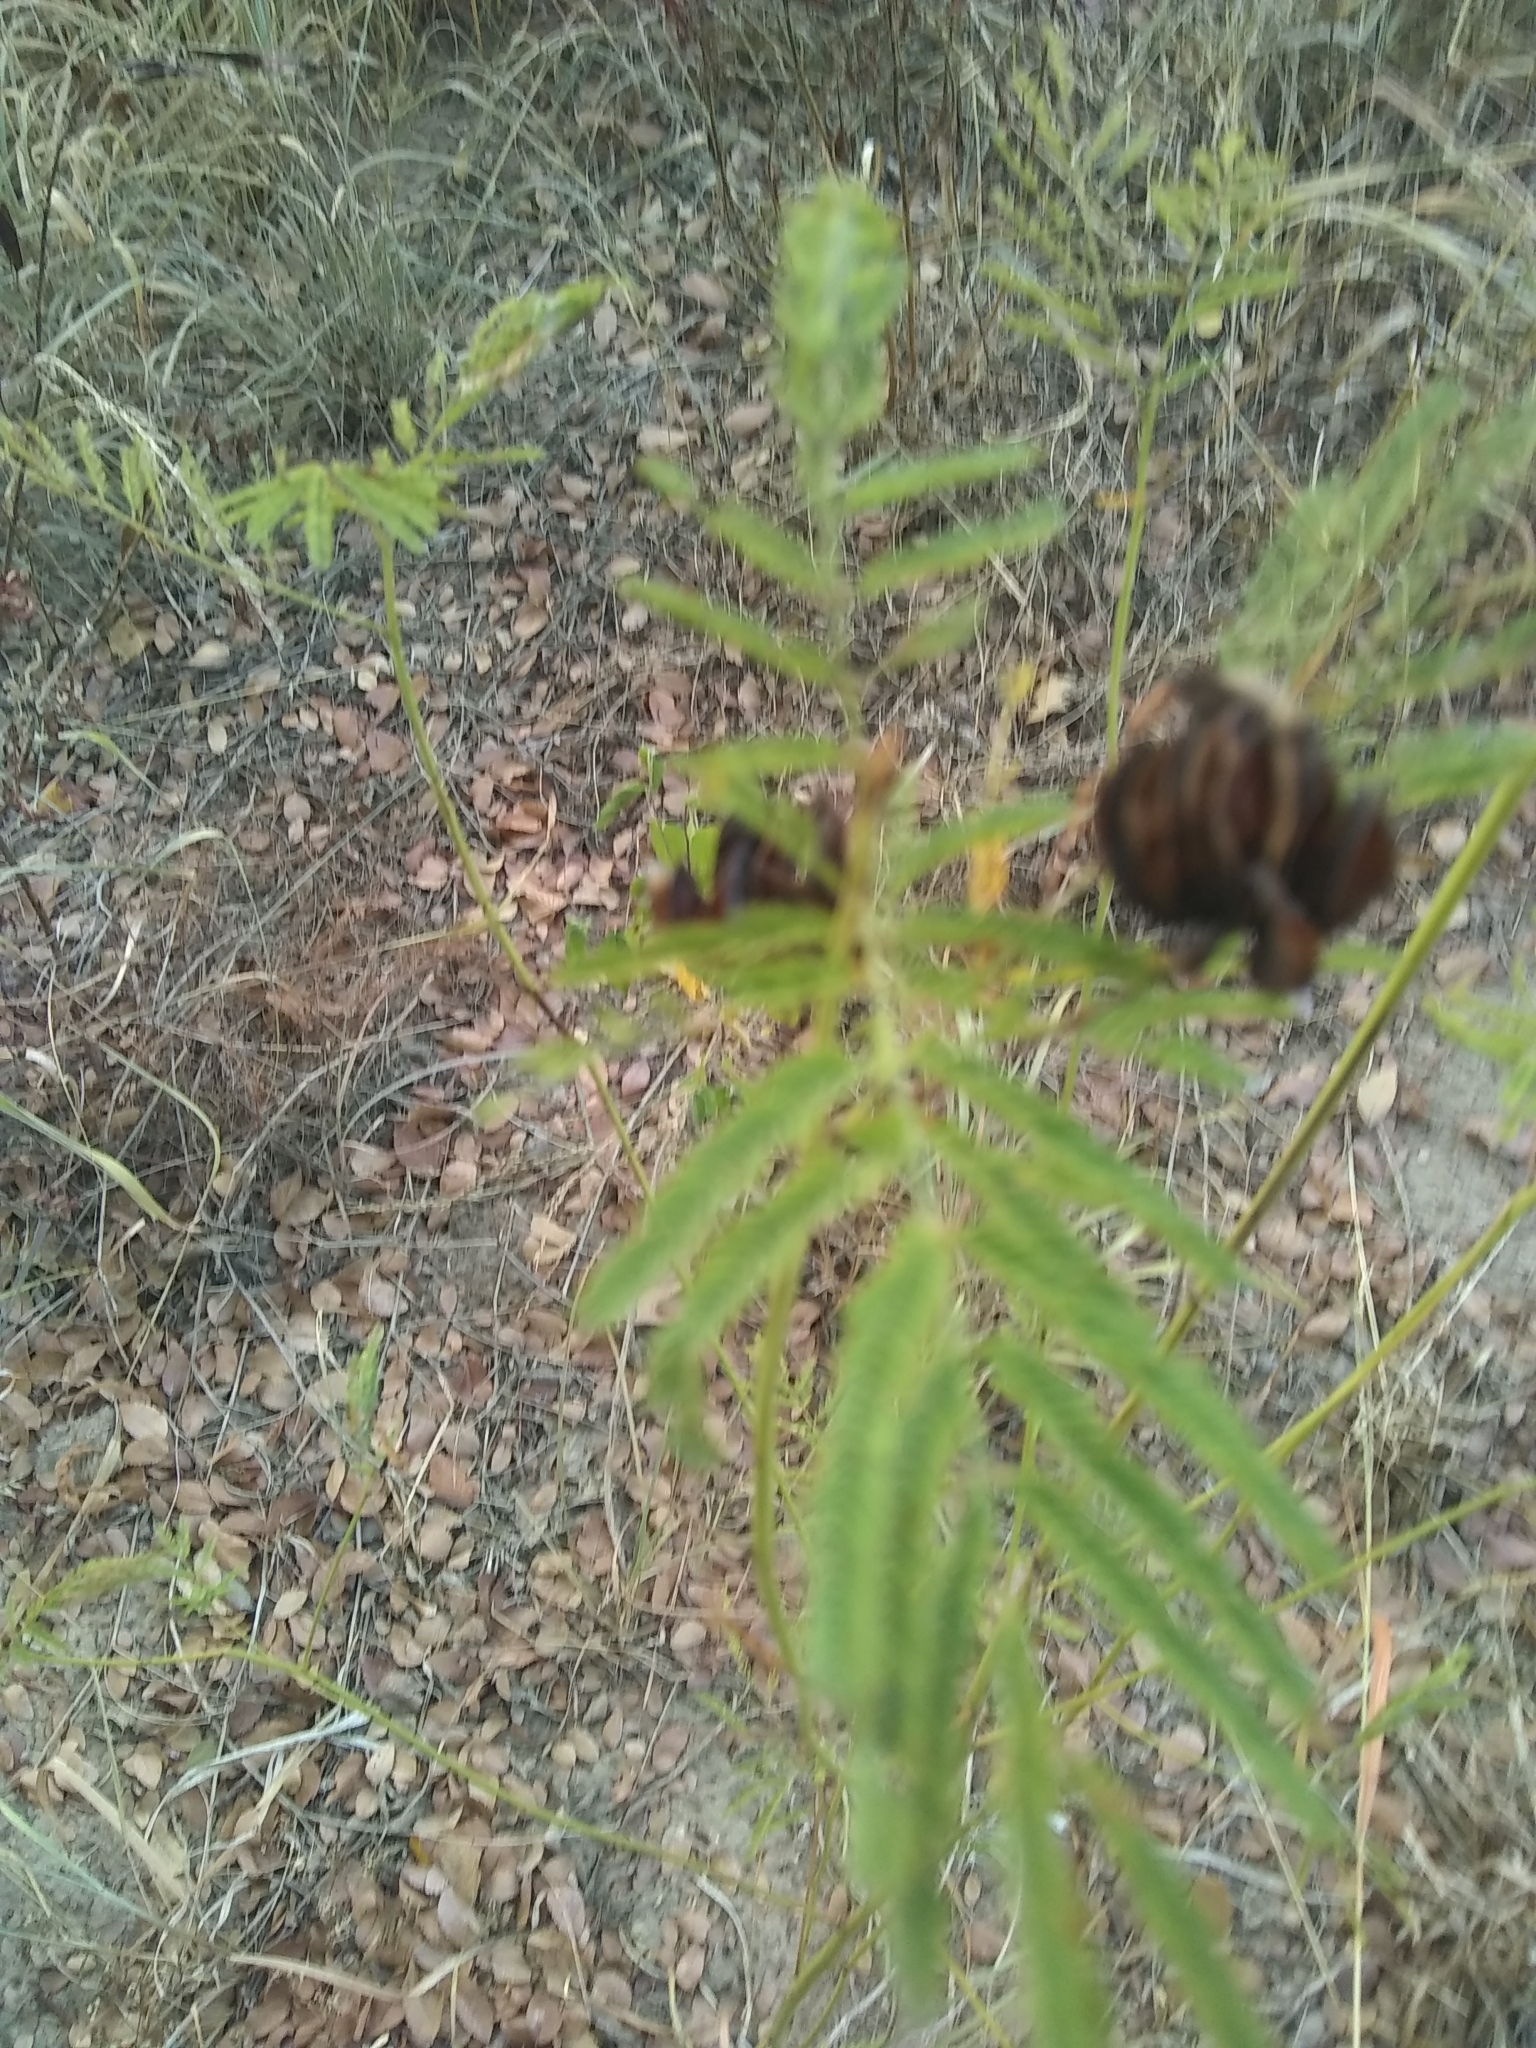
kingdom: Plantae
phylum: Tracheophyta
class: Magnoliopsida
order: Fabales
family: Fabaceae
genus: Desmanthus
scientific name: Desmanthus illinoensis
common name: Illinois bundle-flower
